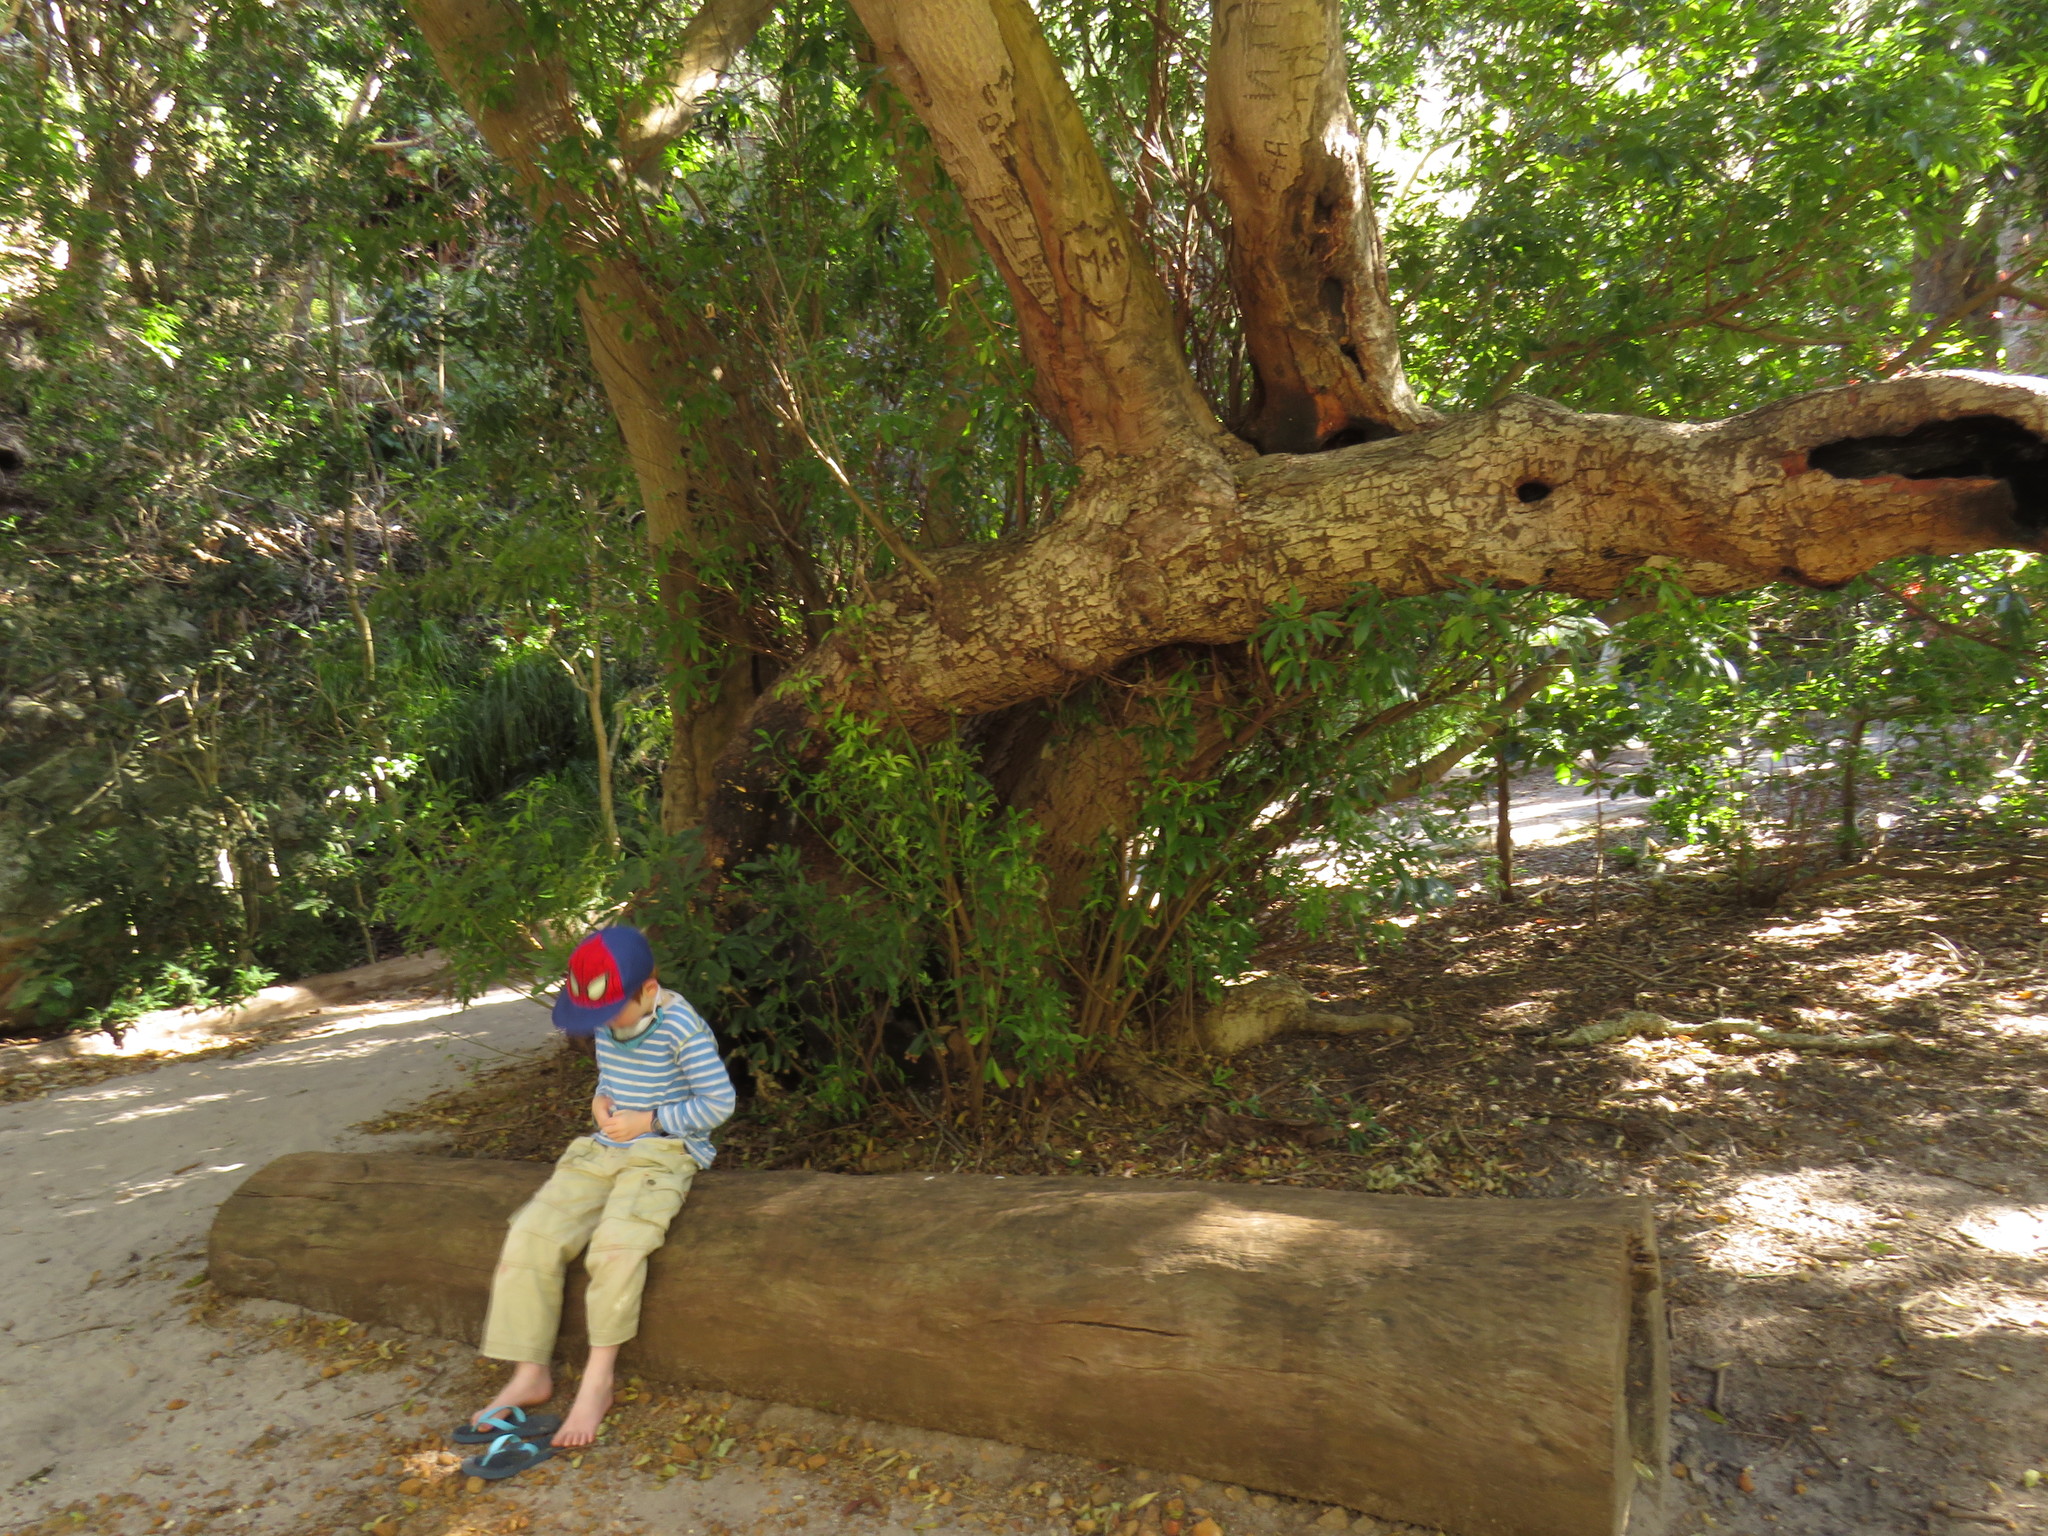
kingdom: Plantae
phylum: Tracheophyta
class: Magnoliopsida
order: Oxalidales
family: Cunoniaceae
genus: Platylophus
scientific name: Platylophus trifoliatus
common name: White alder
